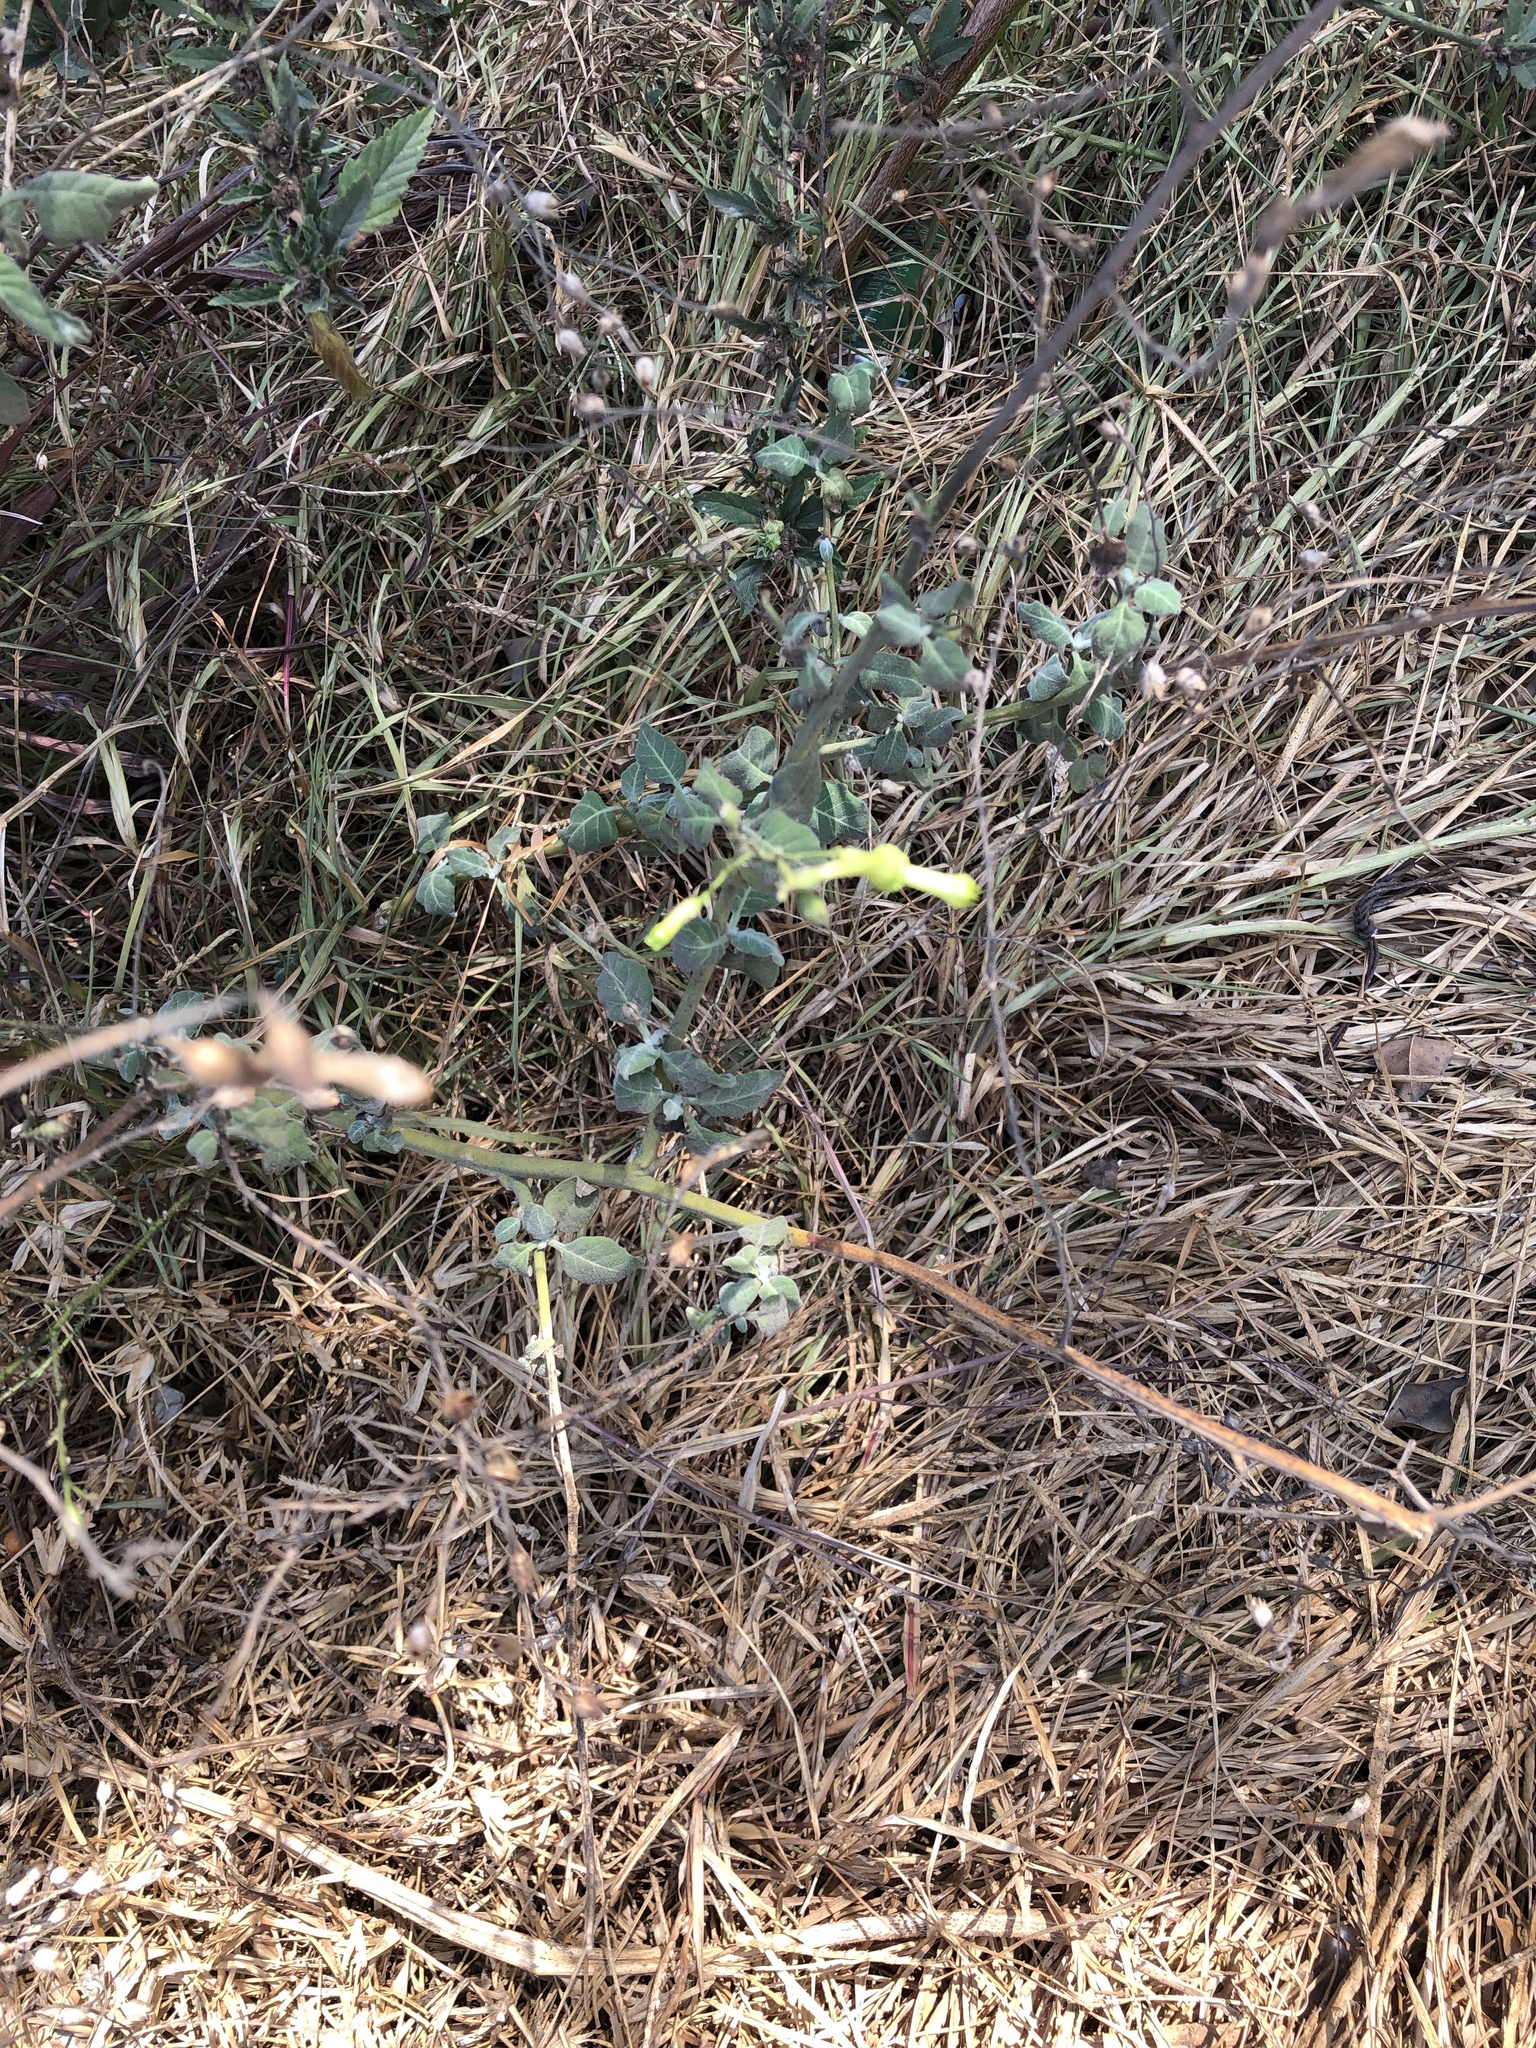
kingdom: Plantae
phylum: Tracheophyta
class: Magnoliopsida
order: Solanales
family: Solanaceae
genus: Nicotiana
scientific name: Nicotiana glauca
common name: Tree tobacco
